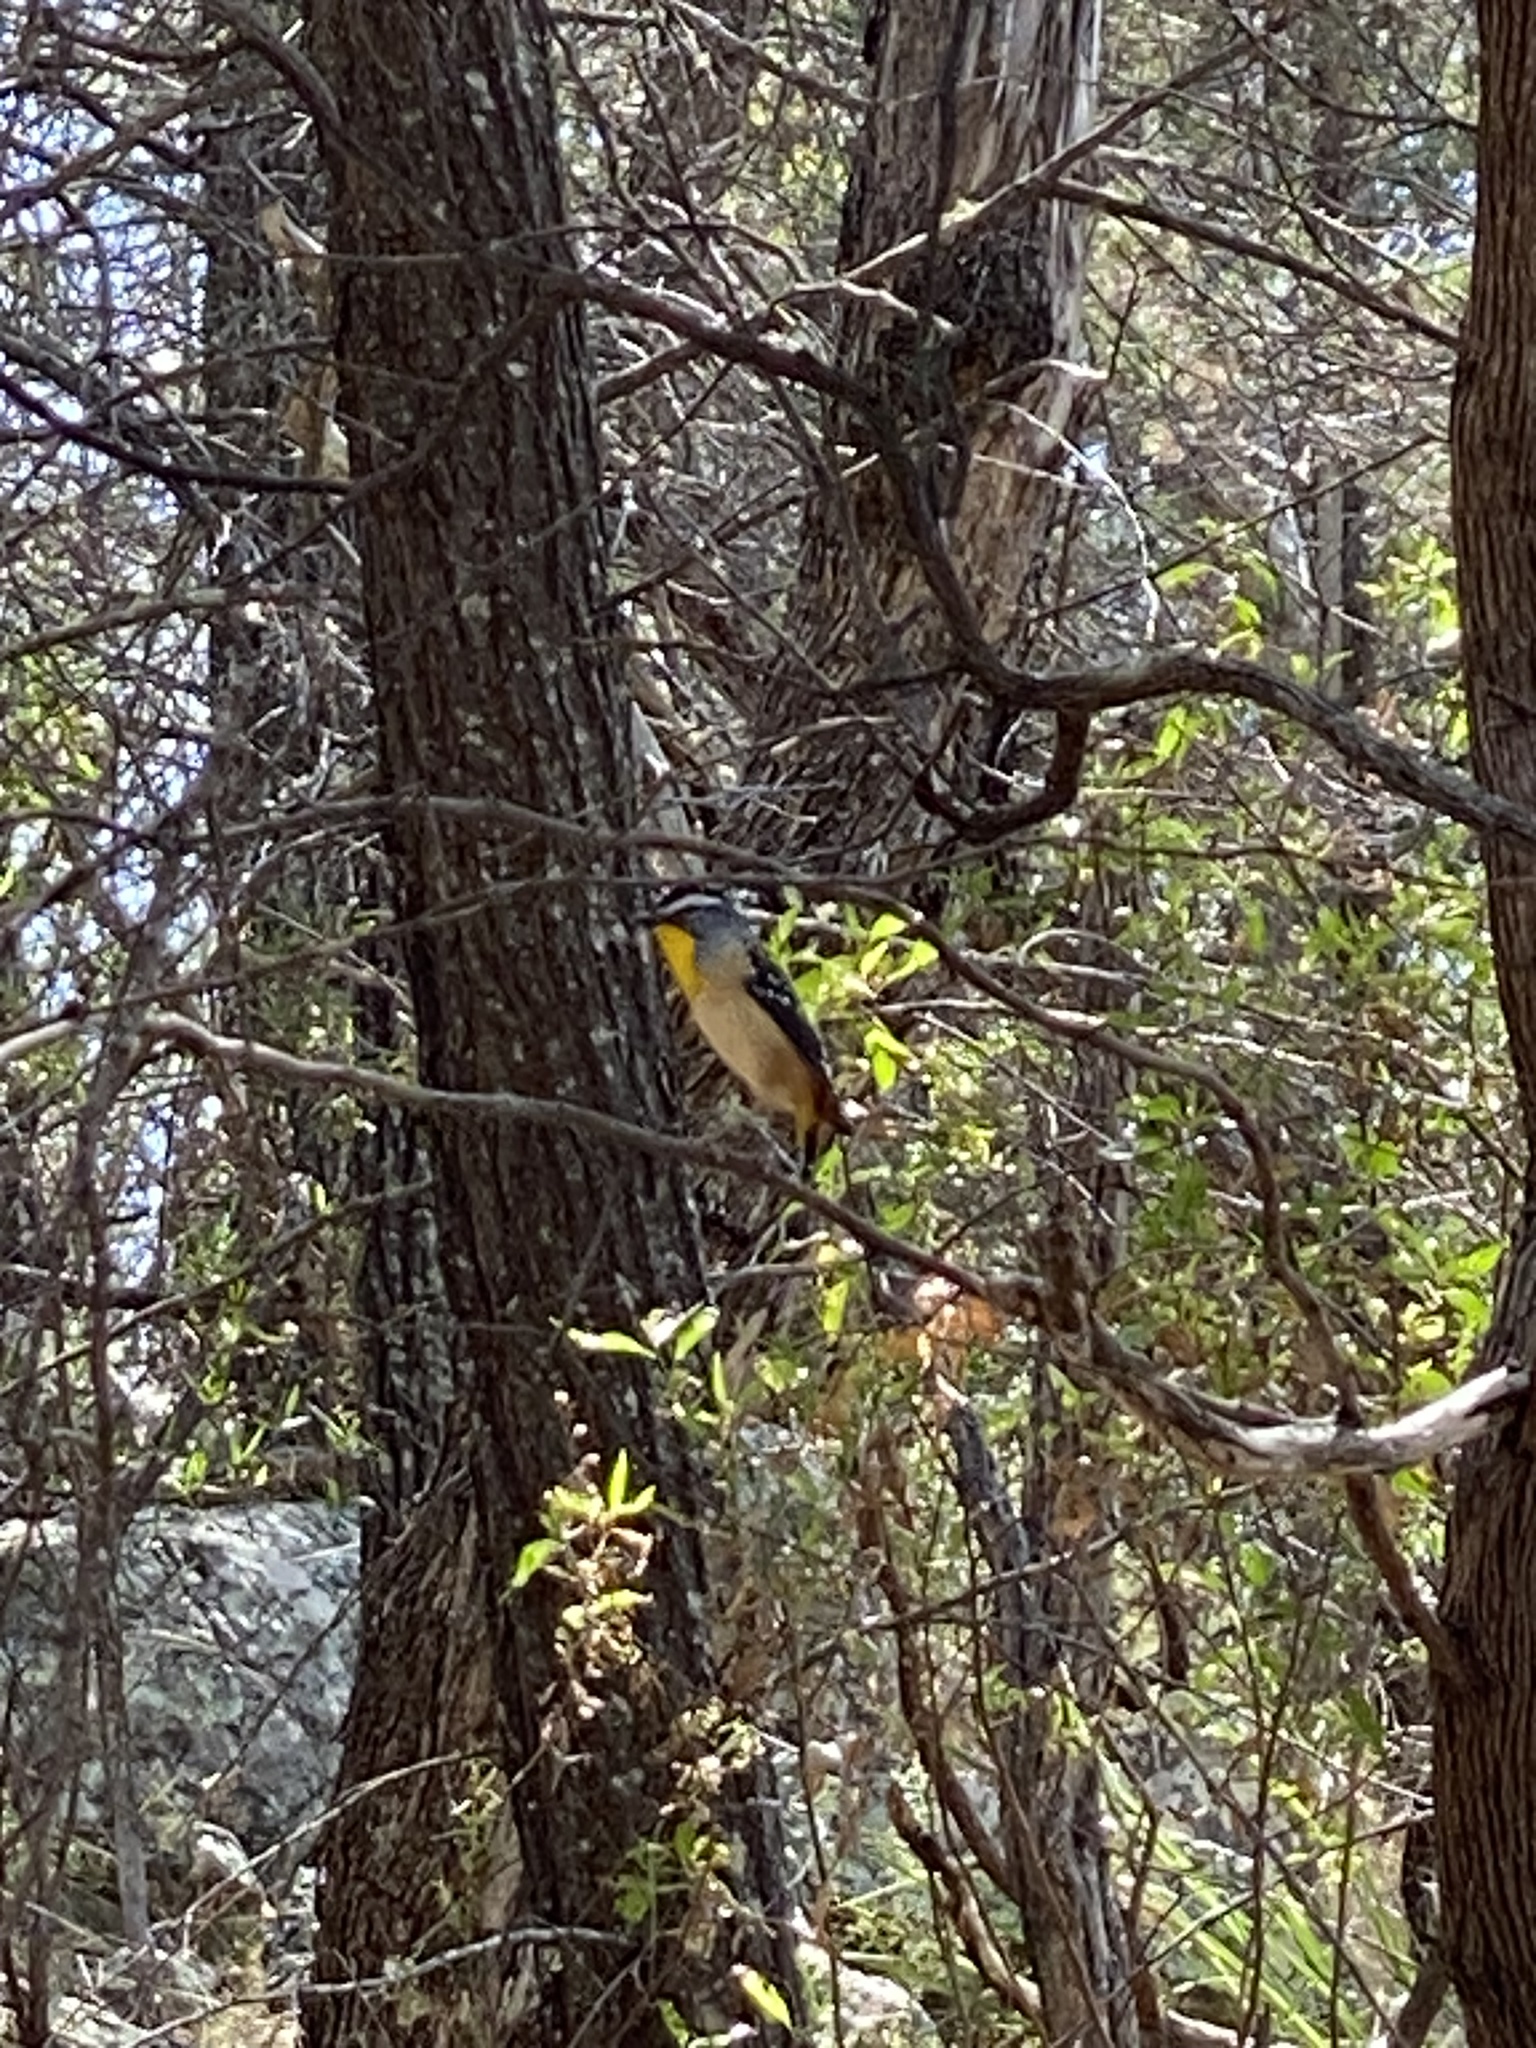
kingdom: Animalia
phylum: Chordata
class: Aves
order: Passeriformes
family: Pardalotidae
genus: Pardalotus
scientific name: Pardalotus punctatus
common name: Spotted pardalote
